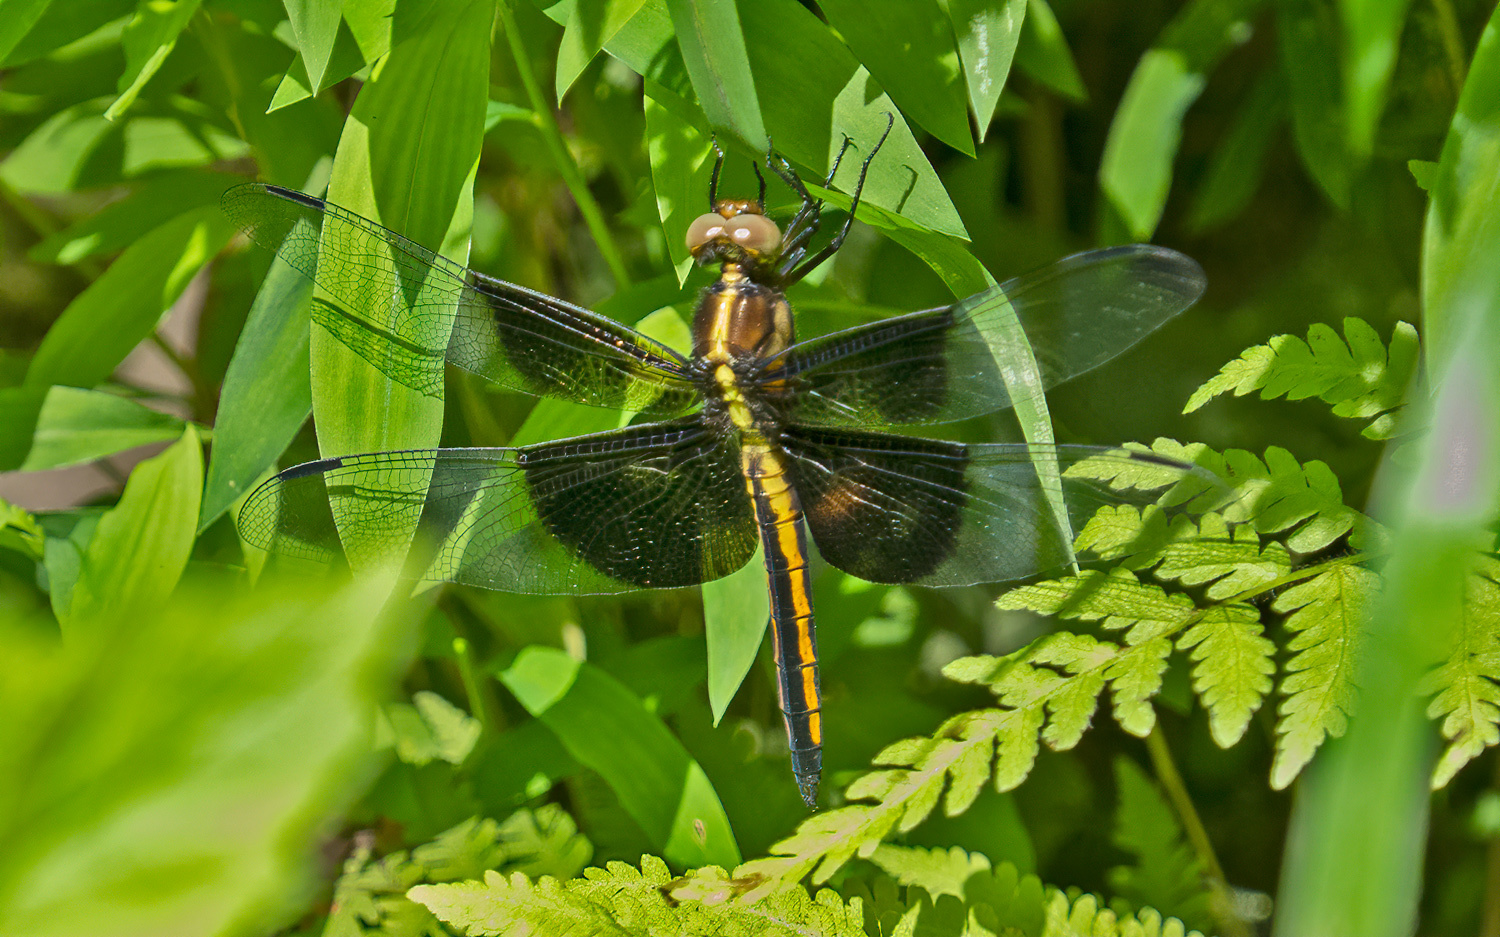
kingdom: Animalia
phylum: Arthropoda
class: Insecta
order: Odonata
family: Libellulidae
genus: Libellula
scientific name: Libellula luctuosa
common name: Widow skimmer
